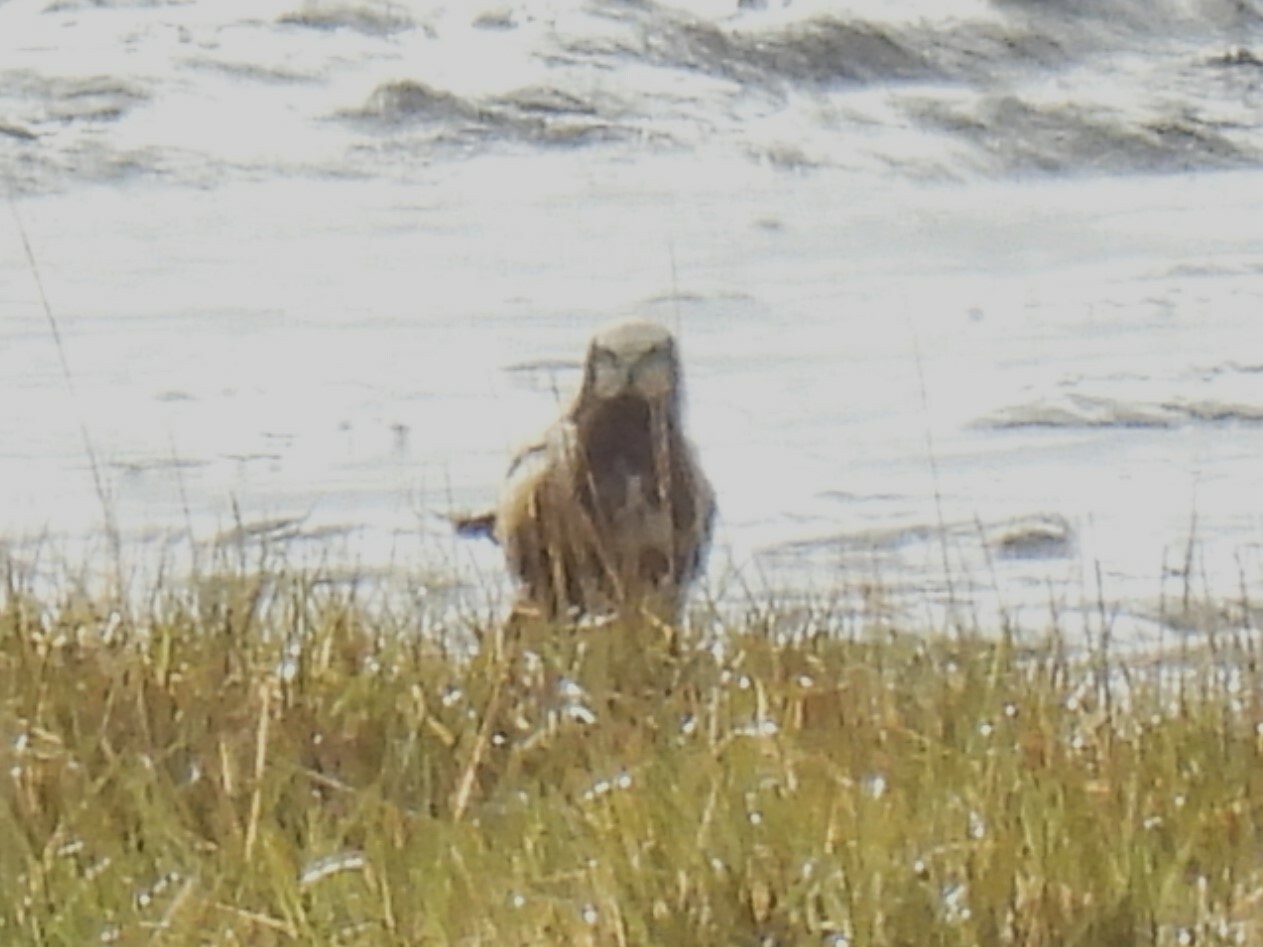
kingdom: Animalia
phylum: Chordata
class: Aves
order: Accipitriformes
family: Accipitridae
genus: Circus
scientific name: Circus aeruginosus
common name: Western marsh harrier
